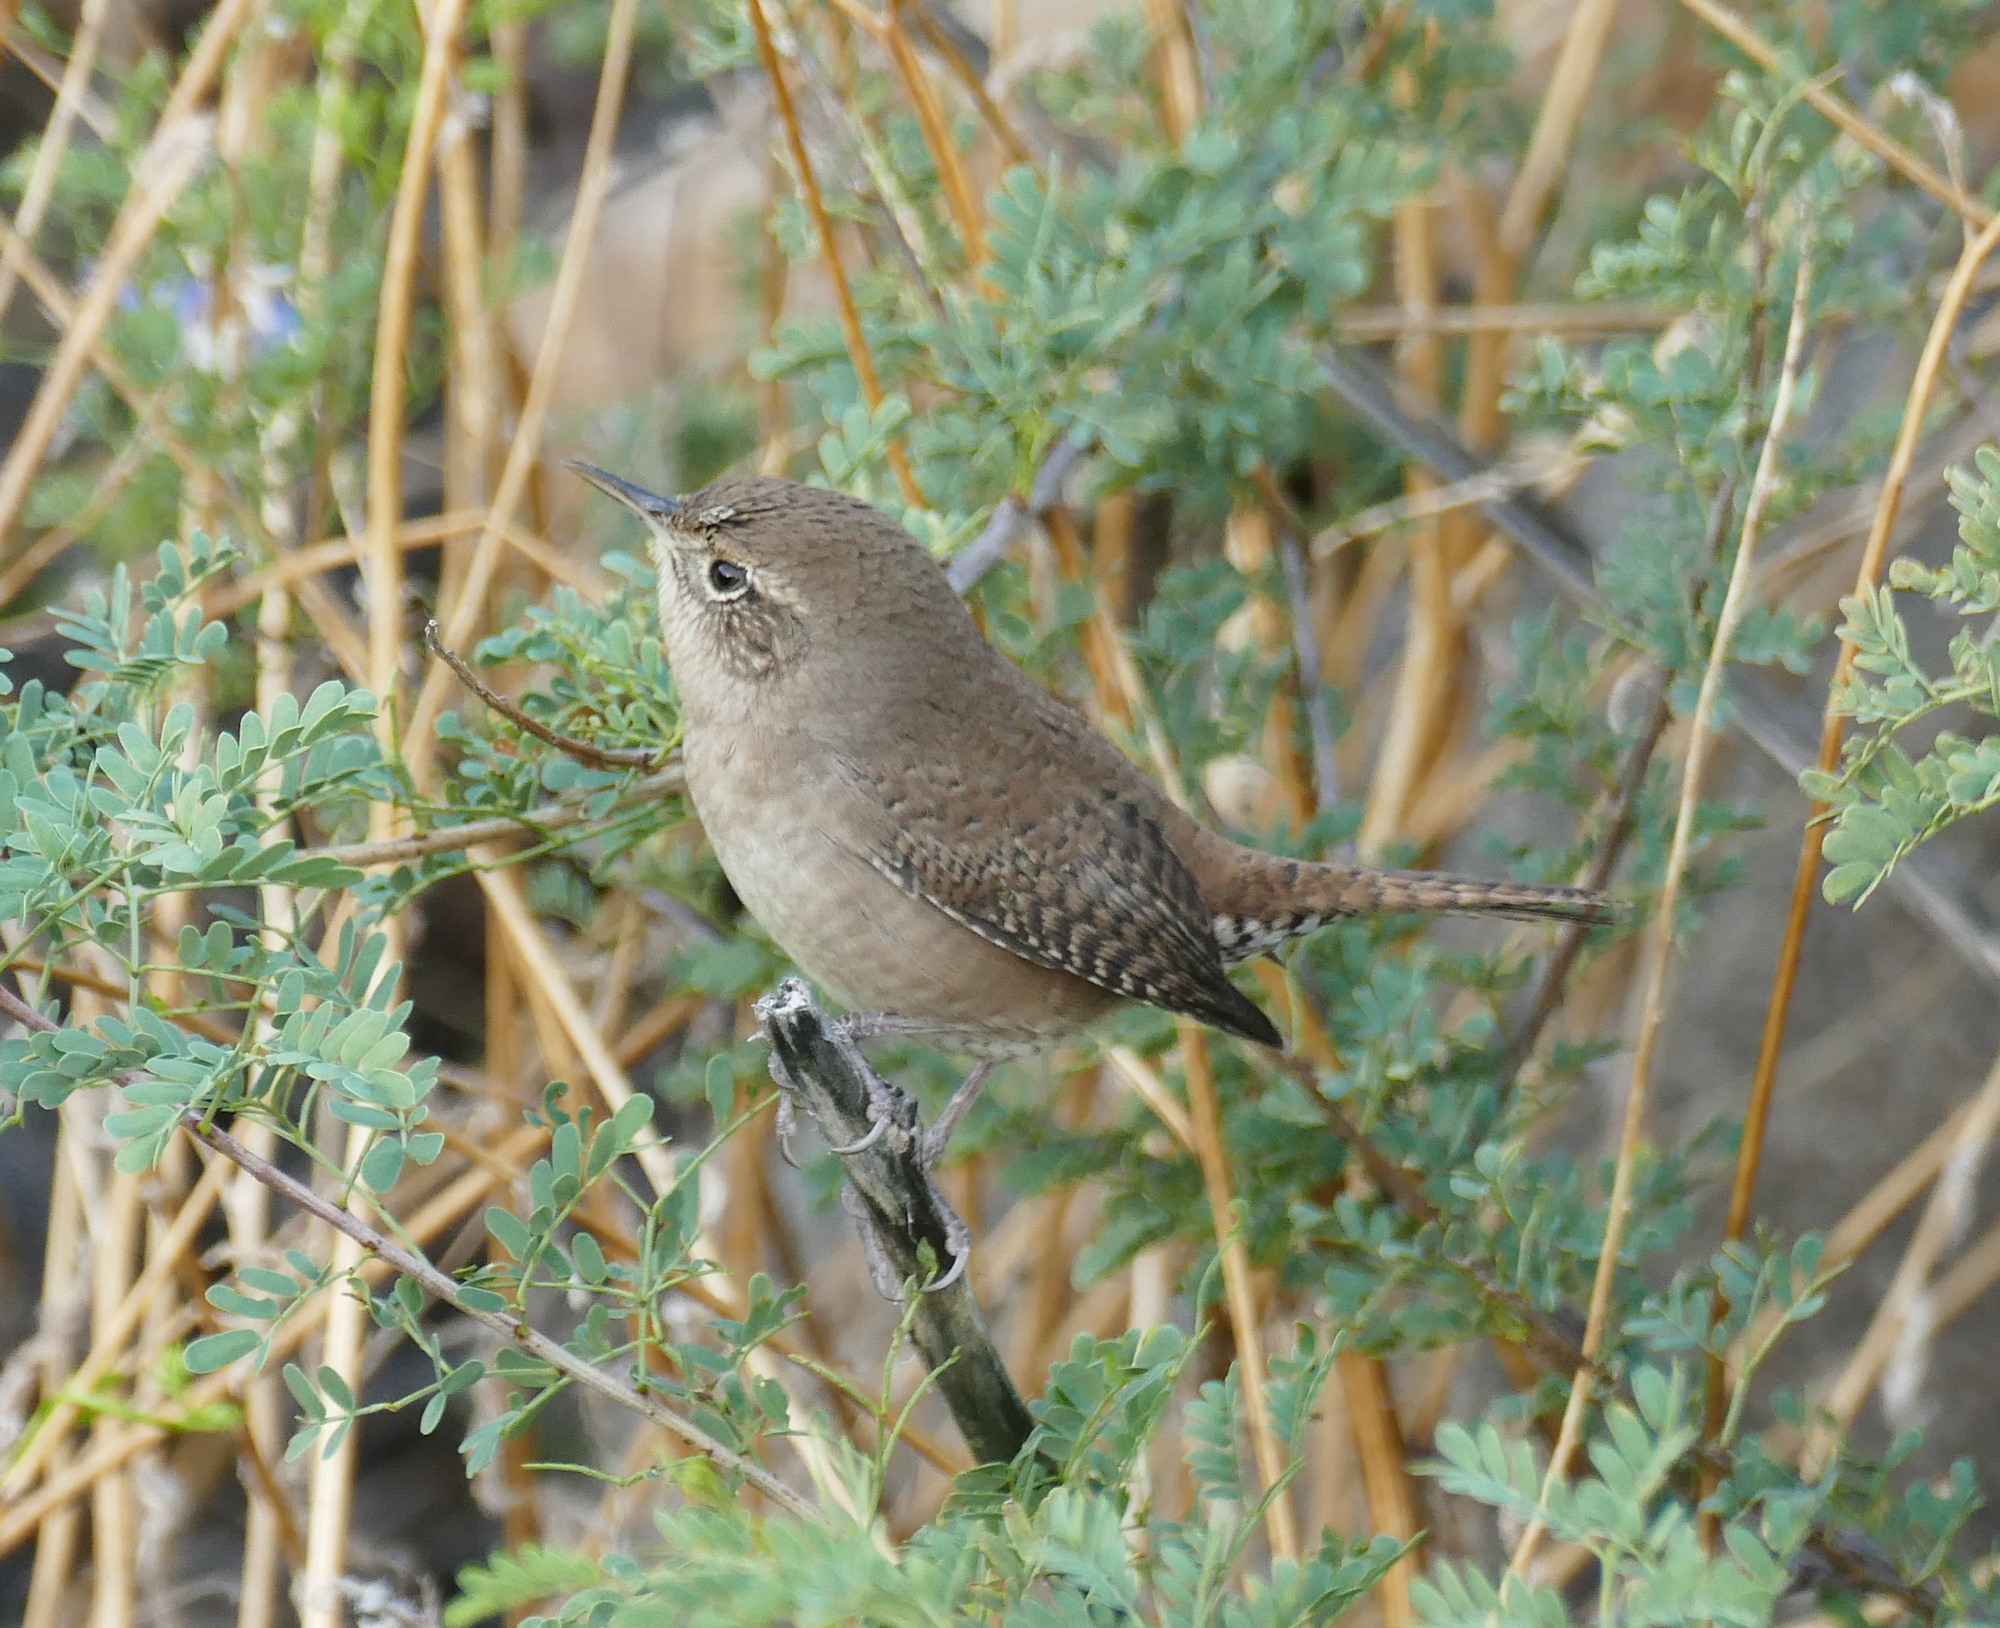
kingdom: Animalia
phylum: Chordata
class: Aves
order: Passeriformes
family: Troglodytidae
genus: Troglodytes
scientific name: Troglodytes aedon
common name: House wren
